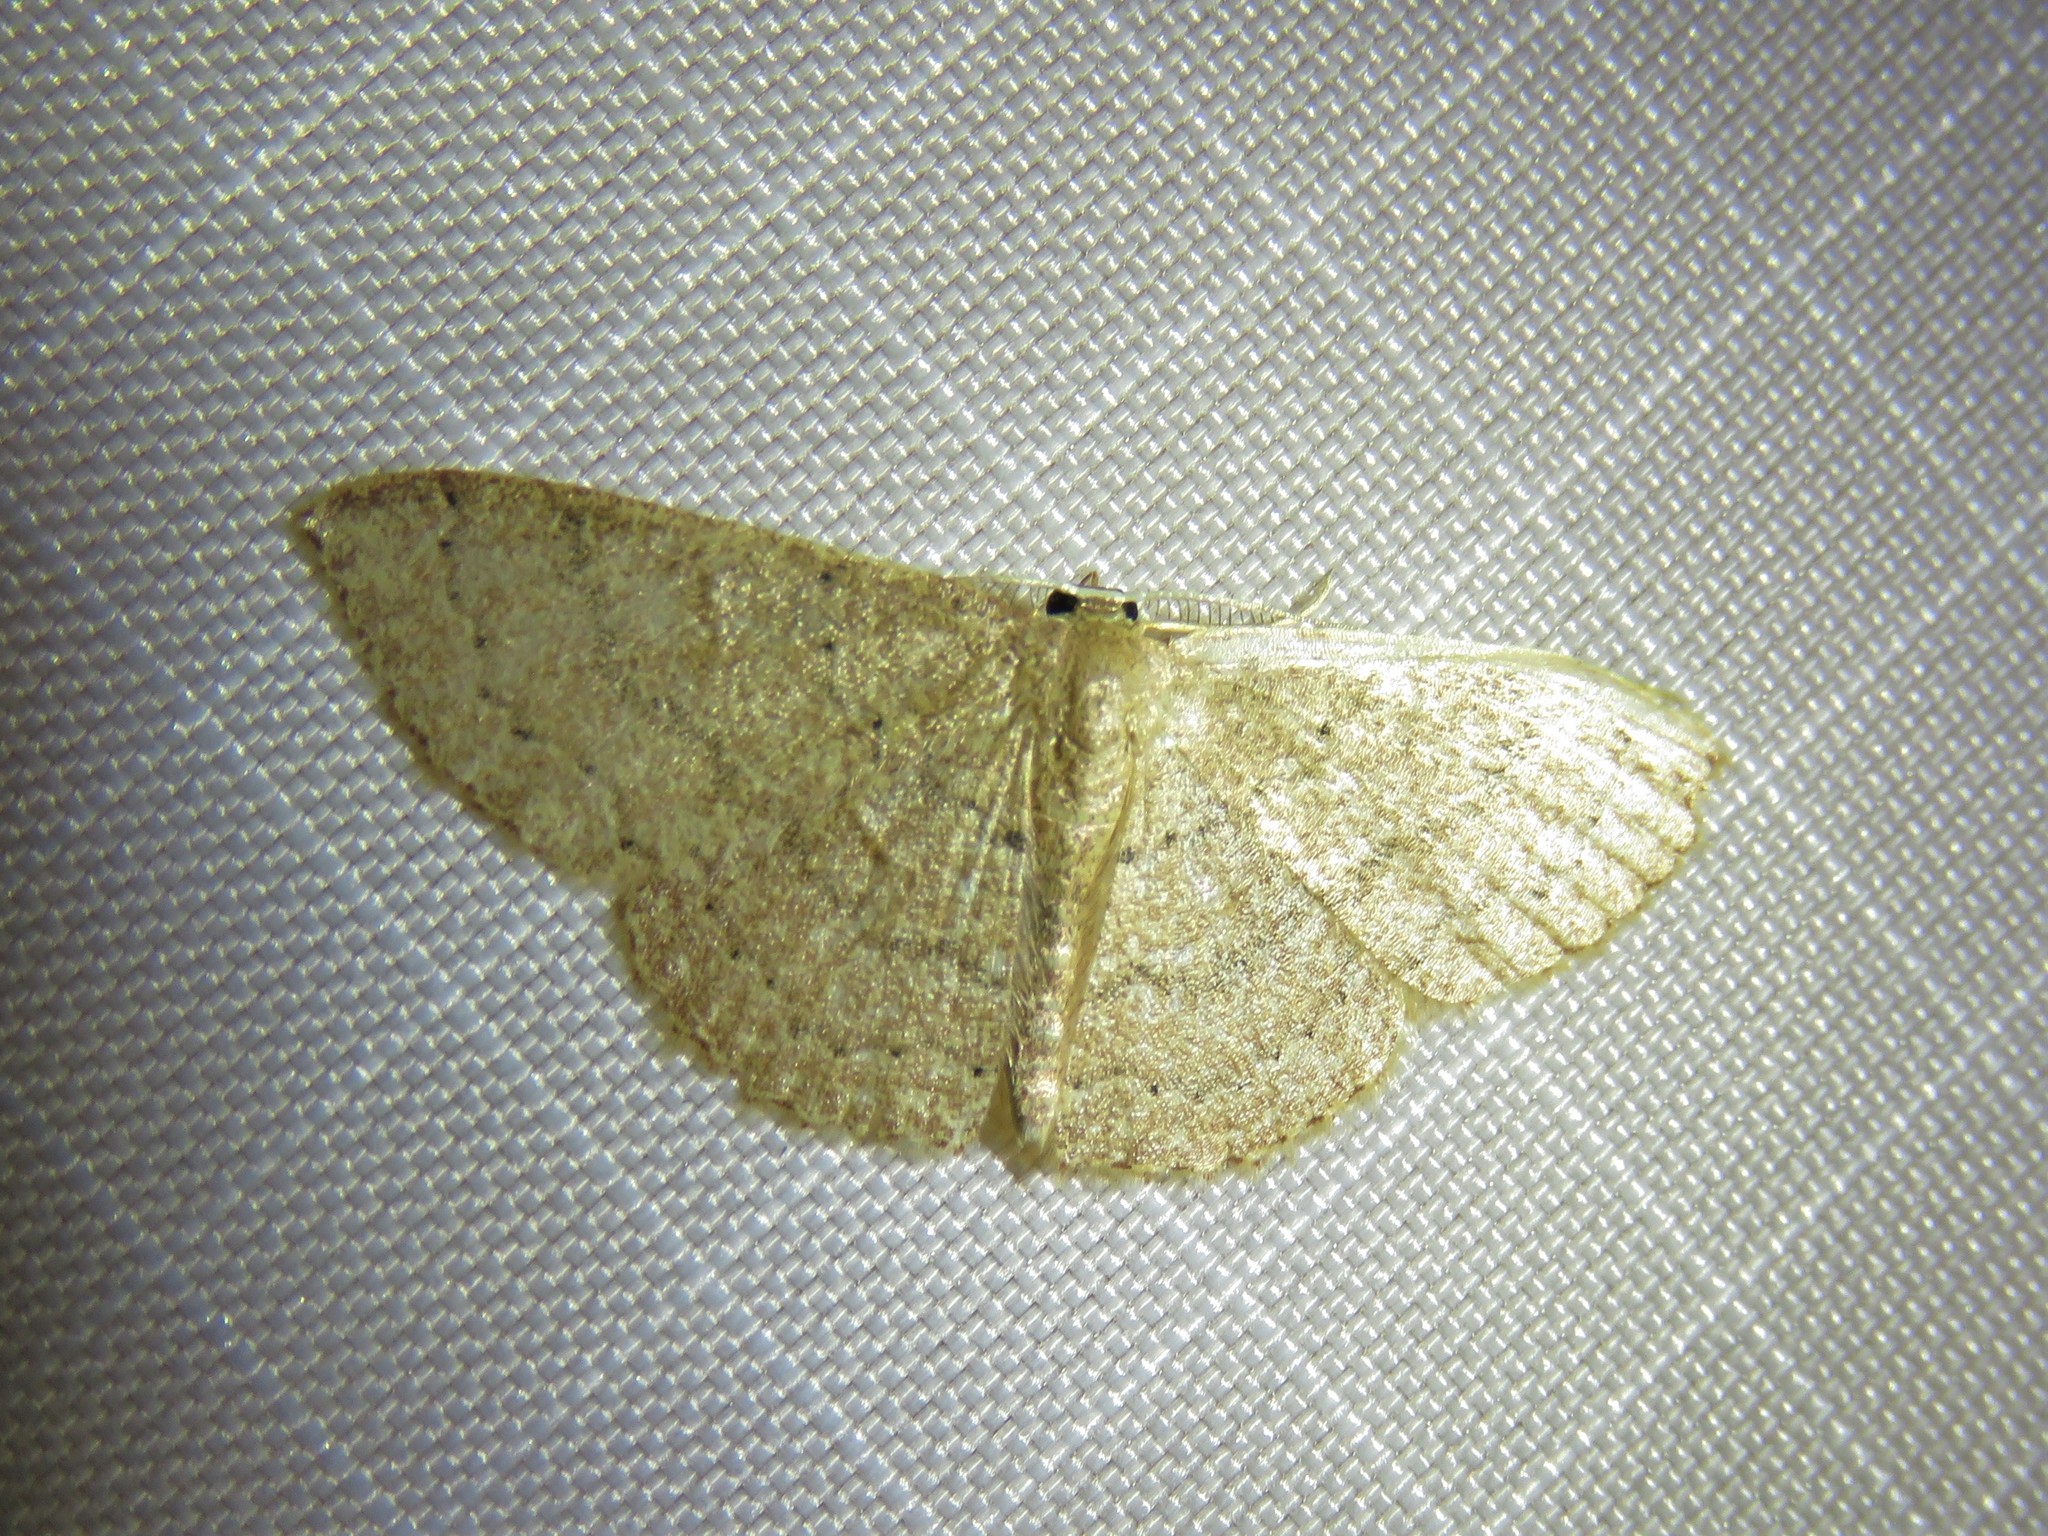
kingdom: Animalia
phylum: Arthropoda
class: Insecta
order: Lepidoptera
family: Geometridae
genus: Pleuroprucha
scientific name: Pleuroprucha insulsaria
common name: Common tan wave
